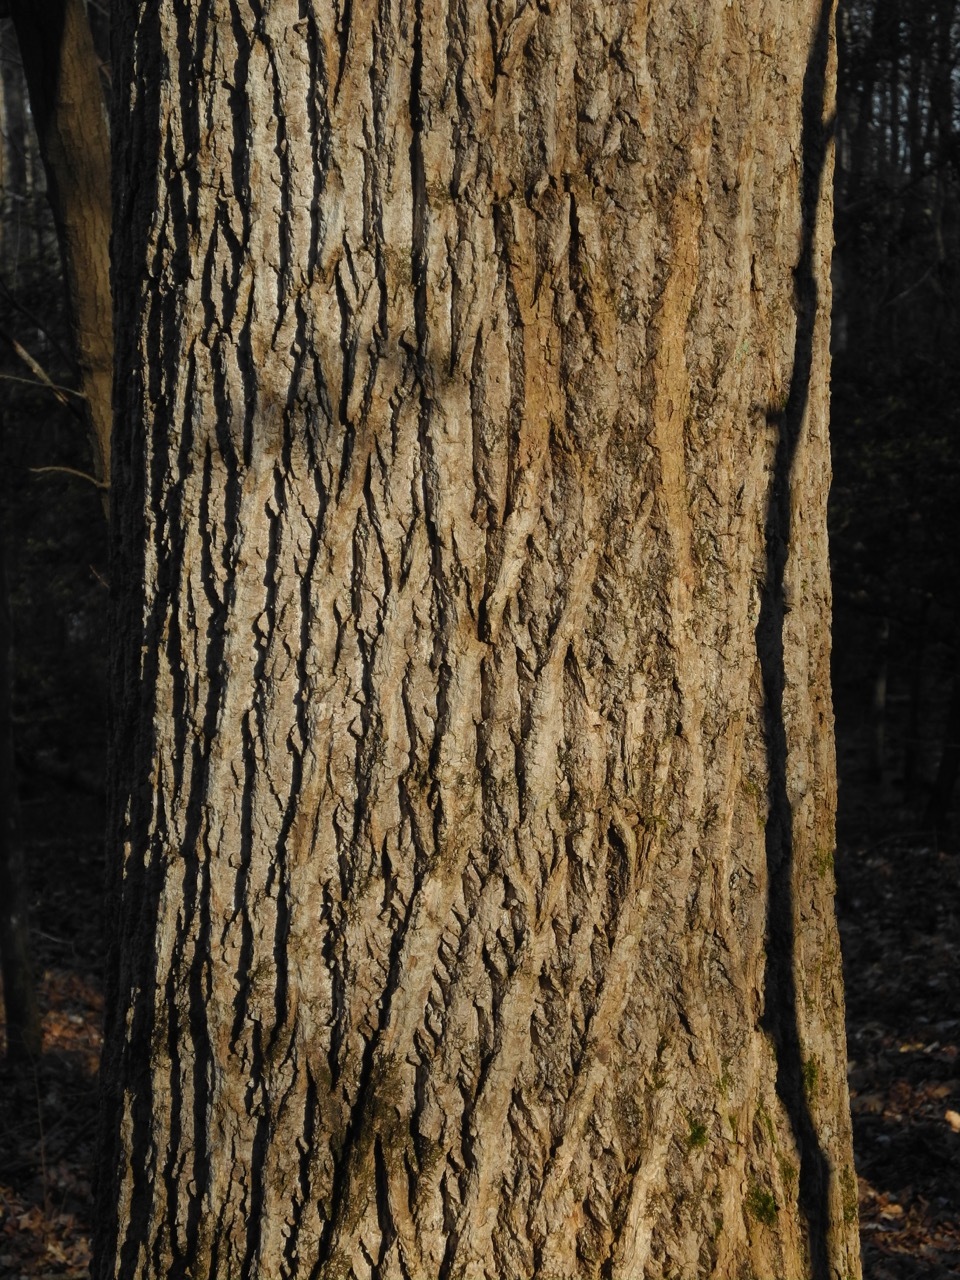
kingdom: Plantae
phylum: Tracheophyta
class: Magnoliopsida
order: Magnoliales
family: Magnoliaceae
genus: Liriodendron
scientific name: Liriodendron tulipifera
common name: Tulip tree
